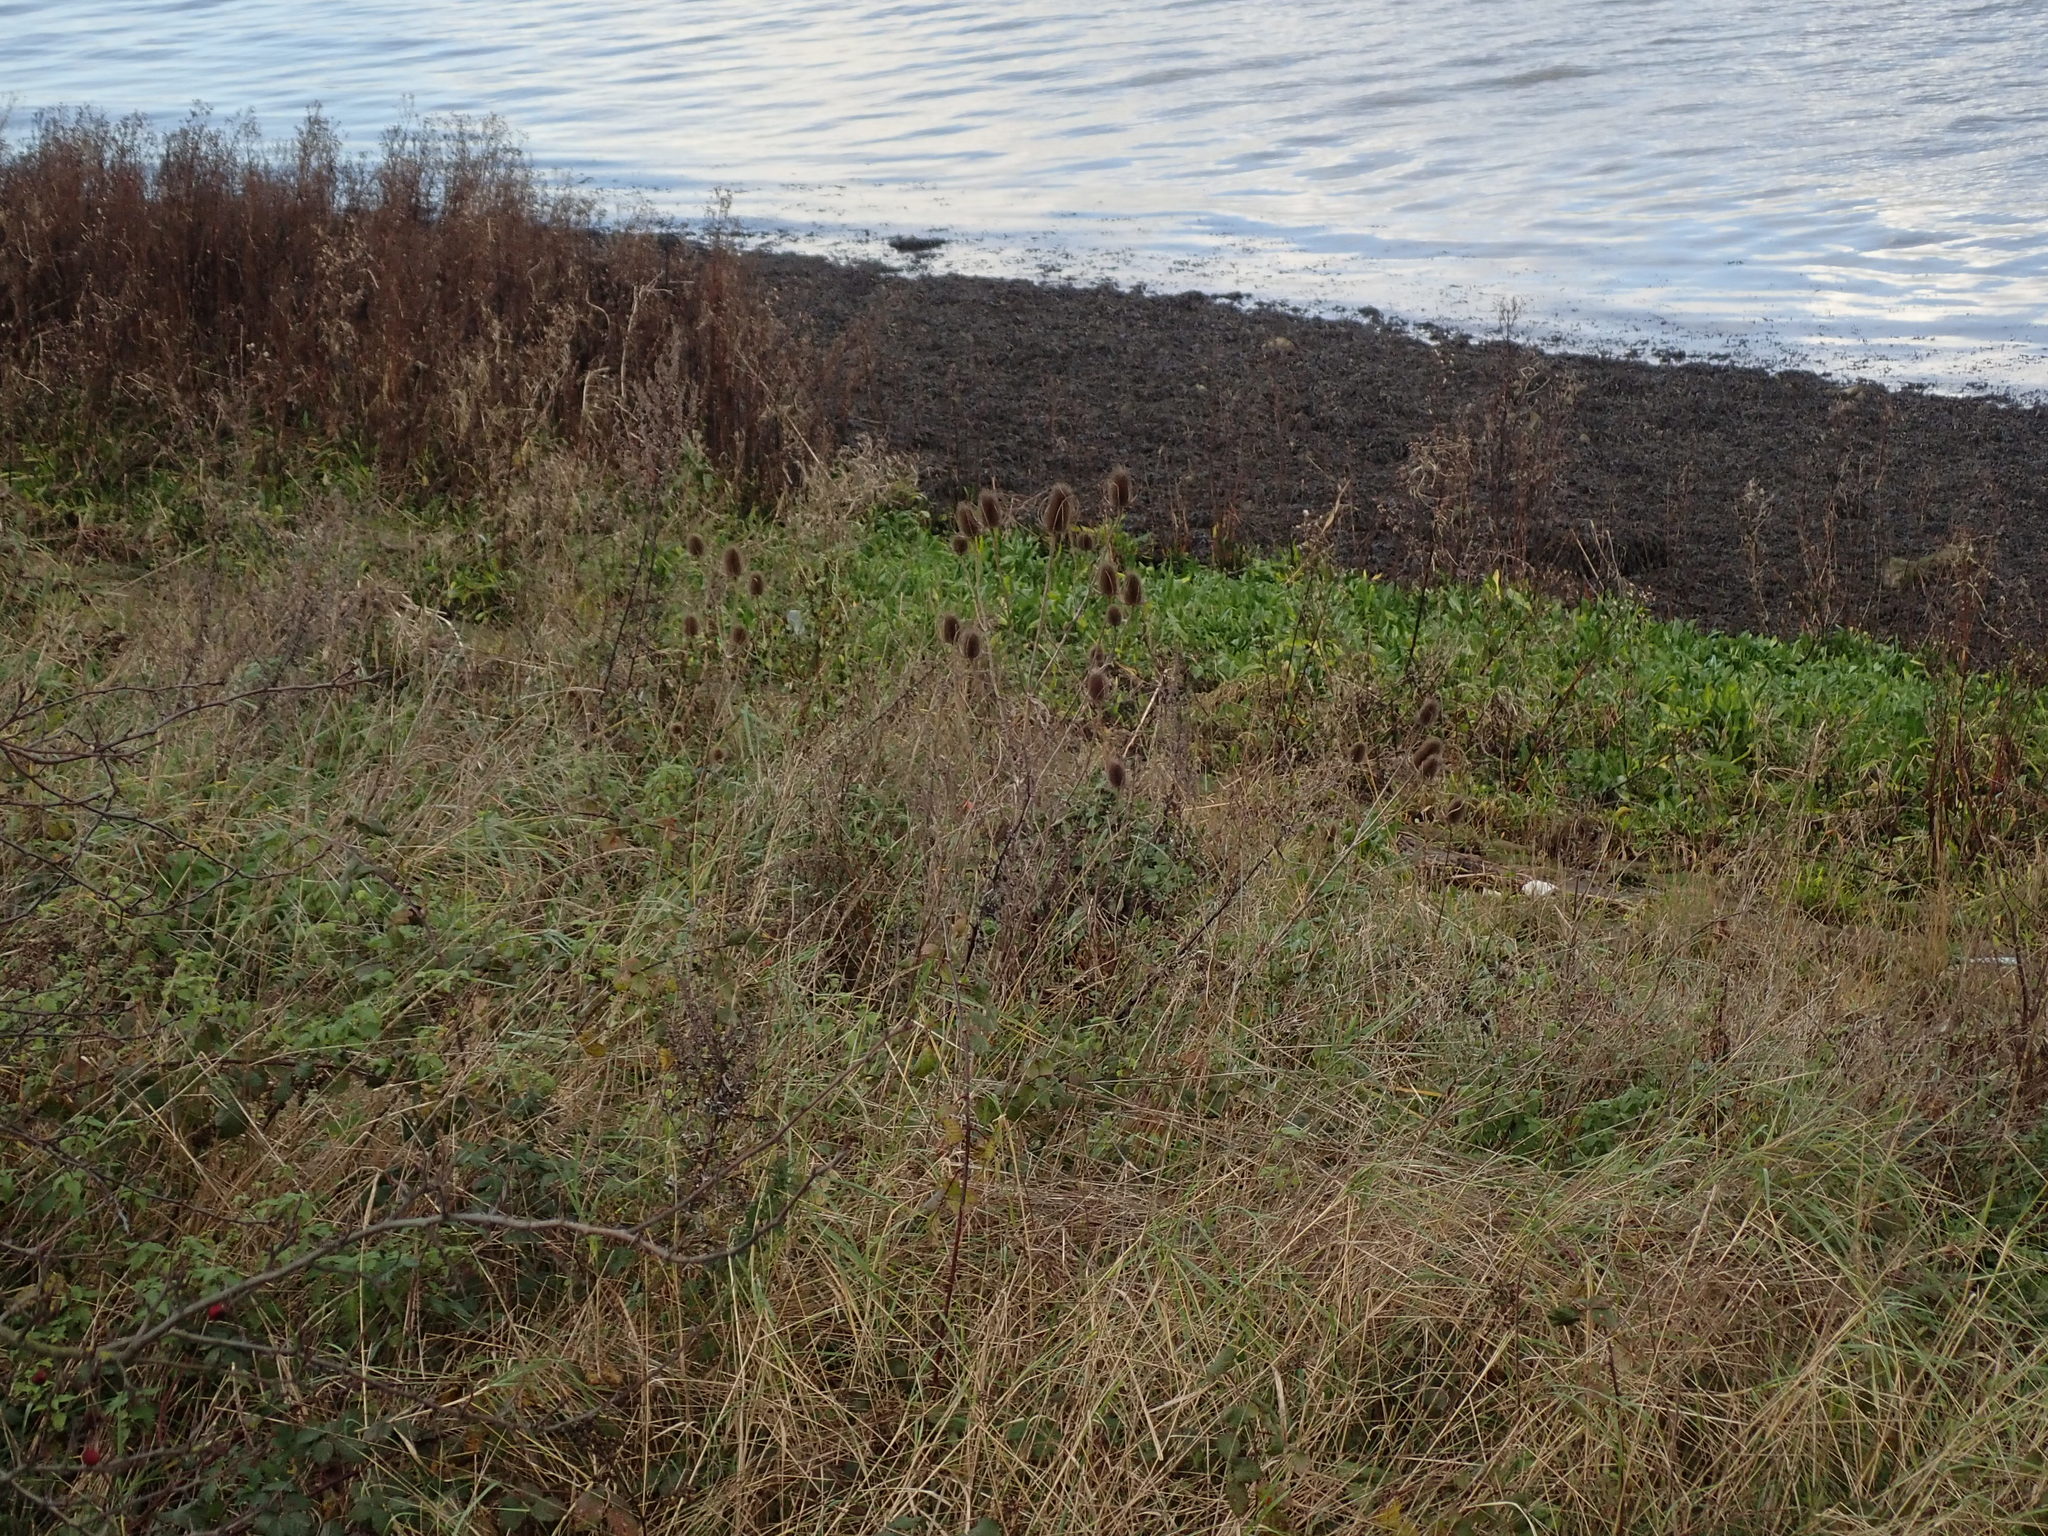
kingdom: Plantae
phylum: Tracheophyta
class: Magnoliopsida
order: Dipsacales
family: Caprifoliaceae
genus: Dipsacus
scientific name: Dipsacus fullonum
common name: Teasel
